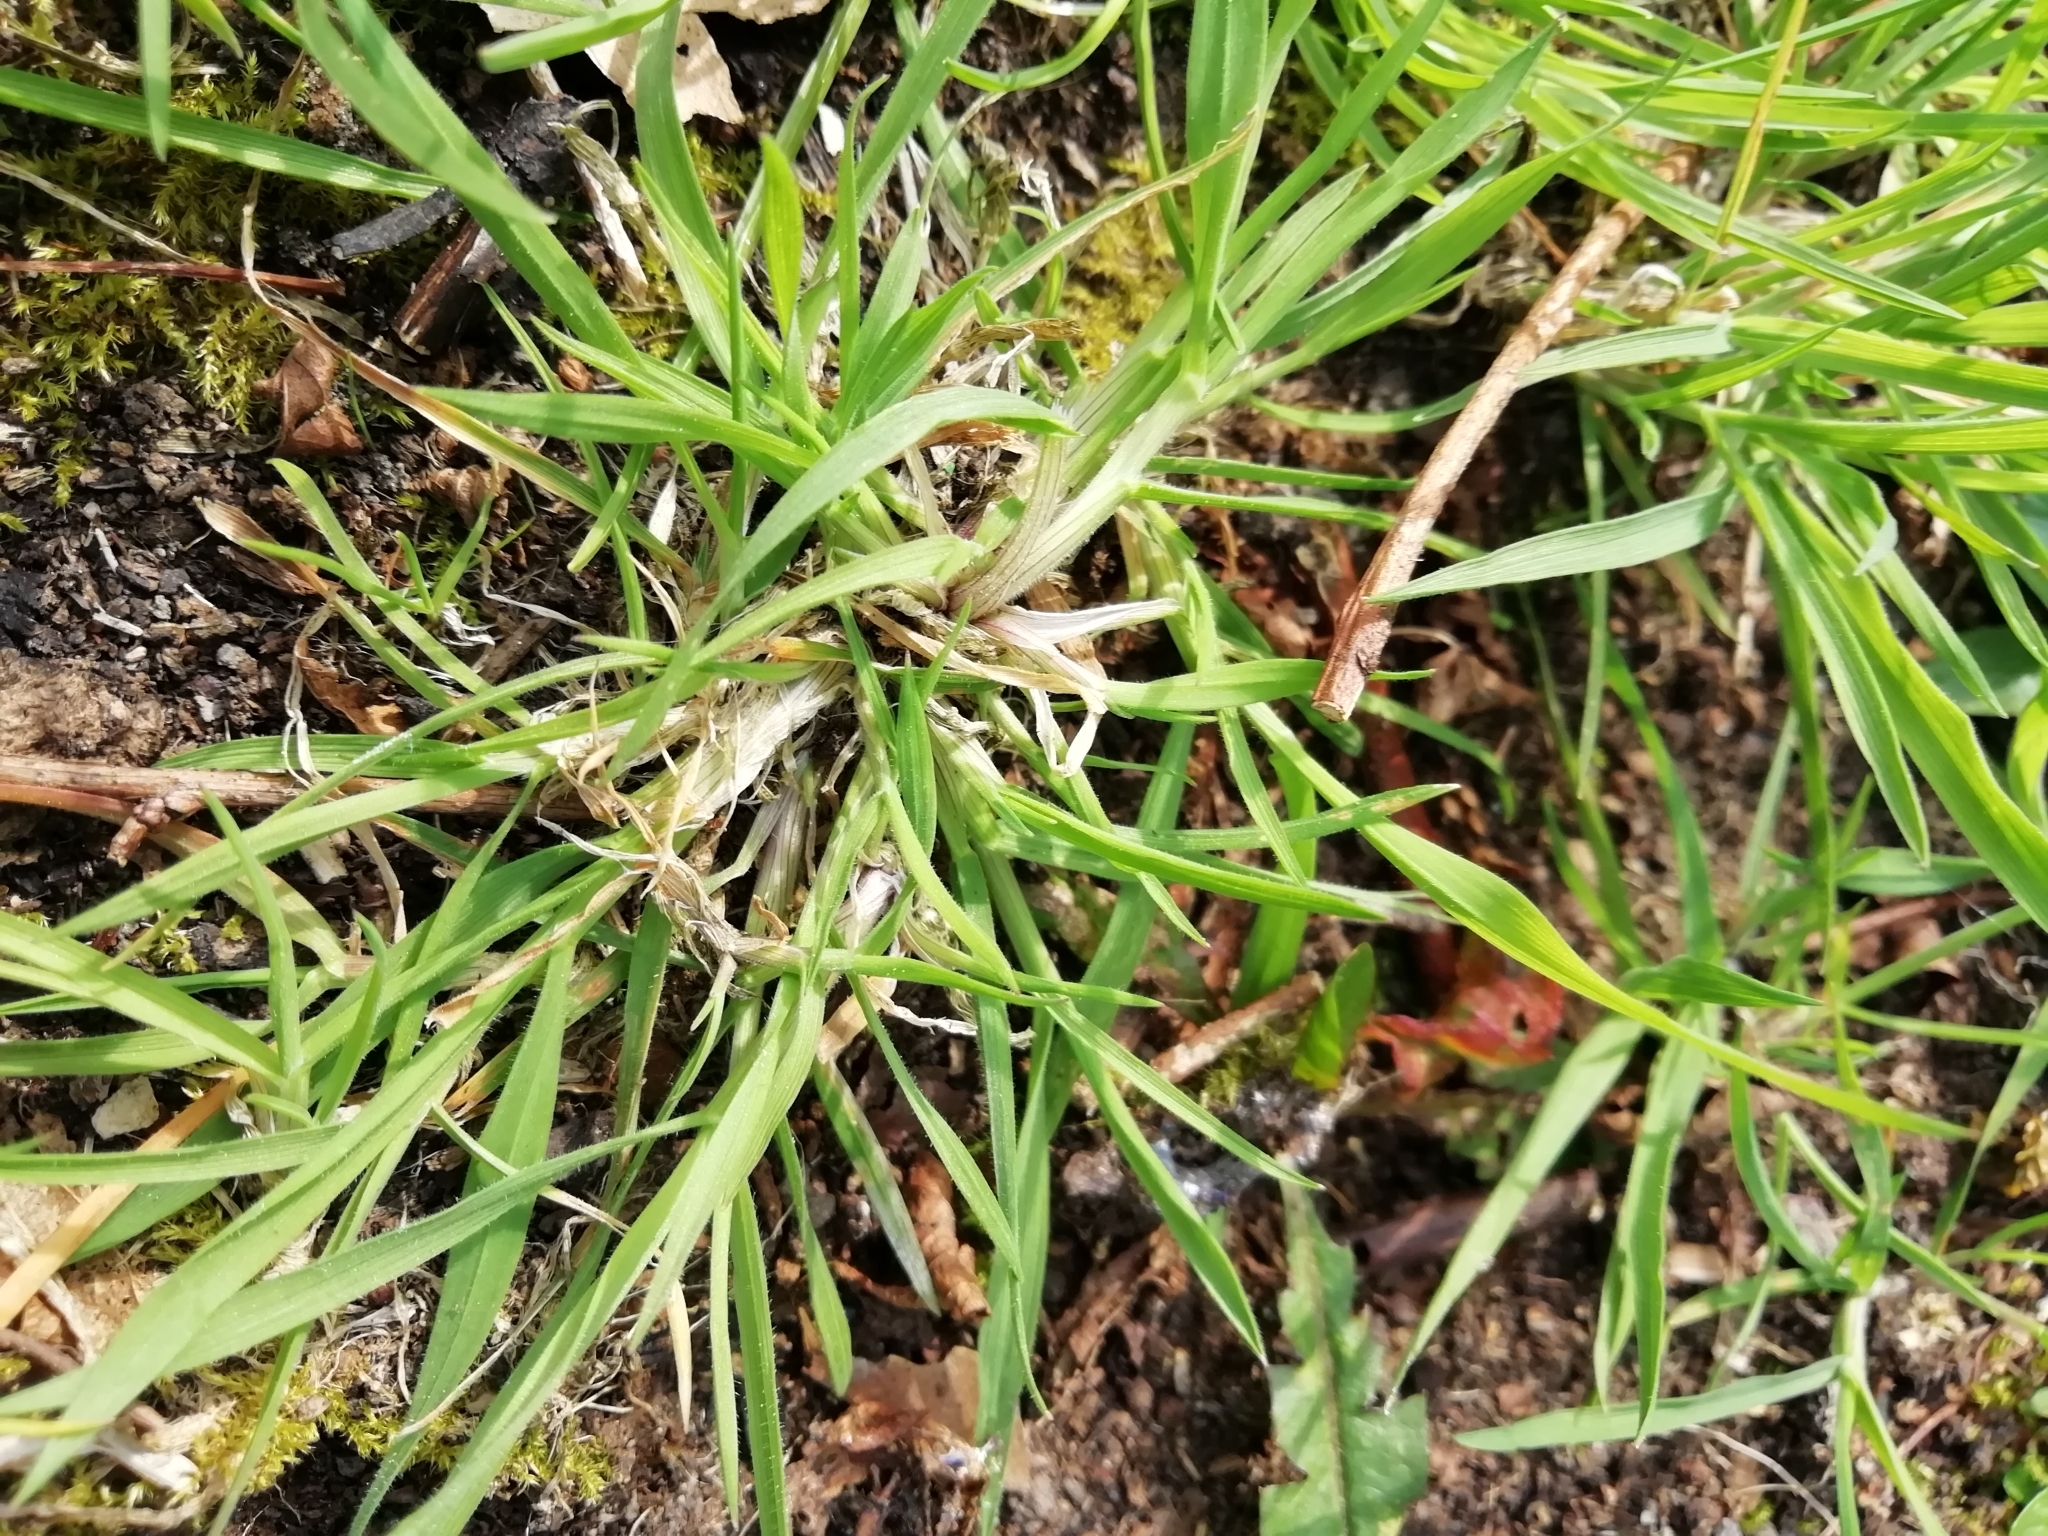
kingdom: Plantae
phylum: Tracheophyta
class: Liliopsida
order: Poales
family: Poaceae
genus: Holcus
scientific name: Holcus lanatus
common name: Yorkshire-fog
